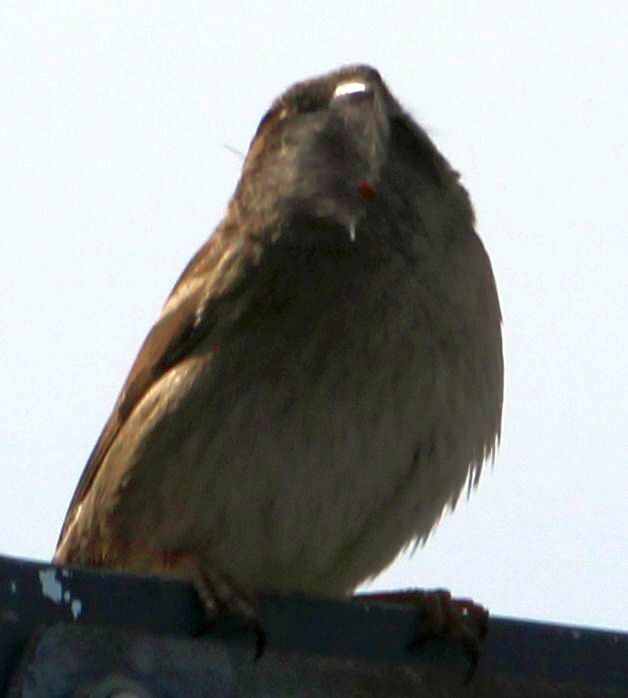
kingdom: Animalia
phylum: Chordata
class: Aves
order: Passeriformes
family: Passeridae
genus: Passer
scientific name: Passer domesticus
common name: House sparrow
